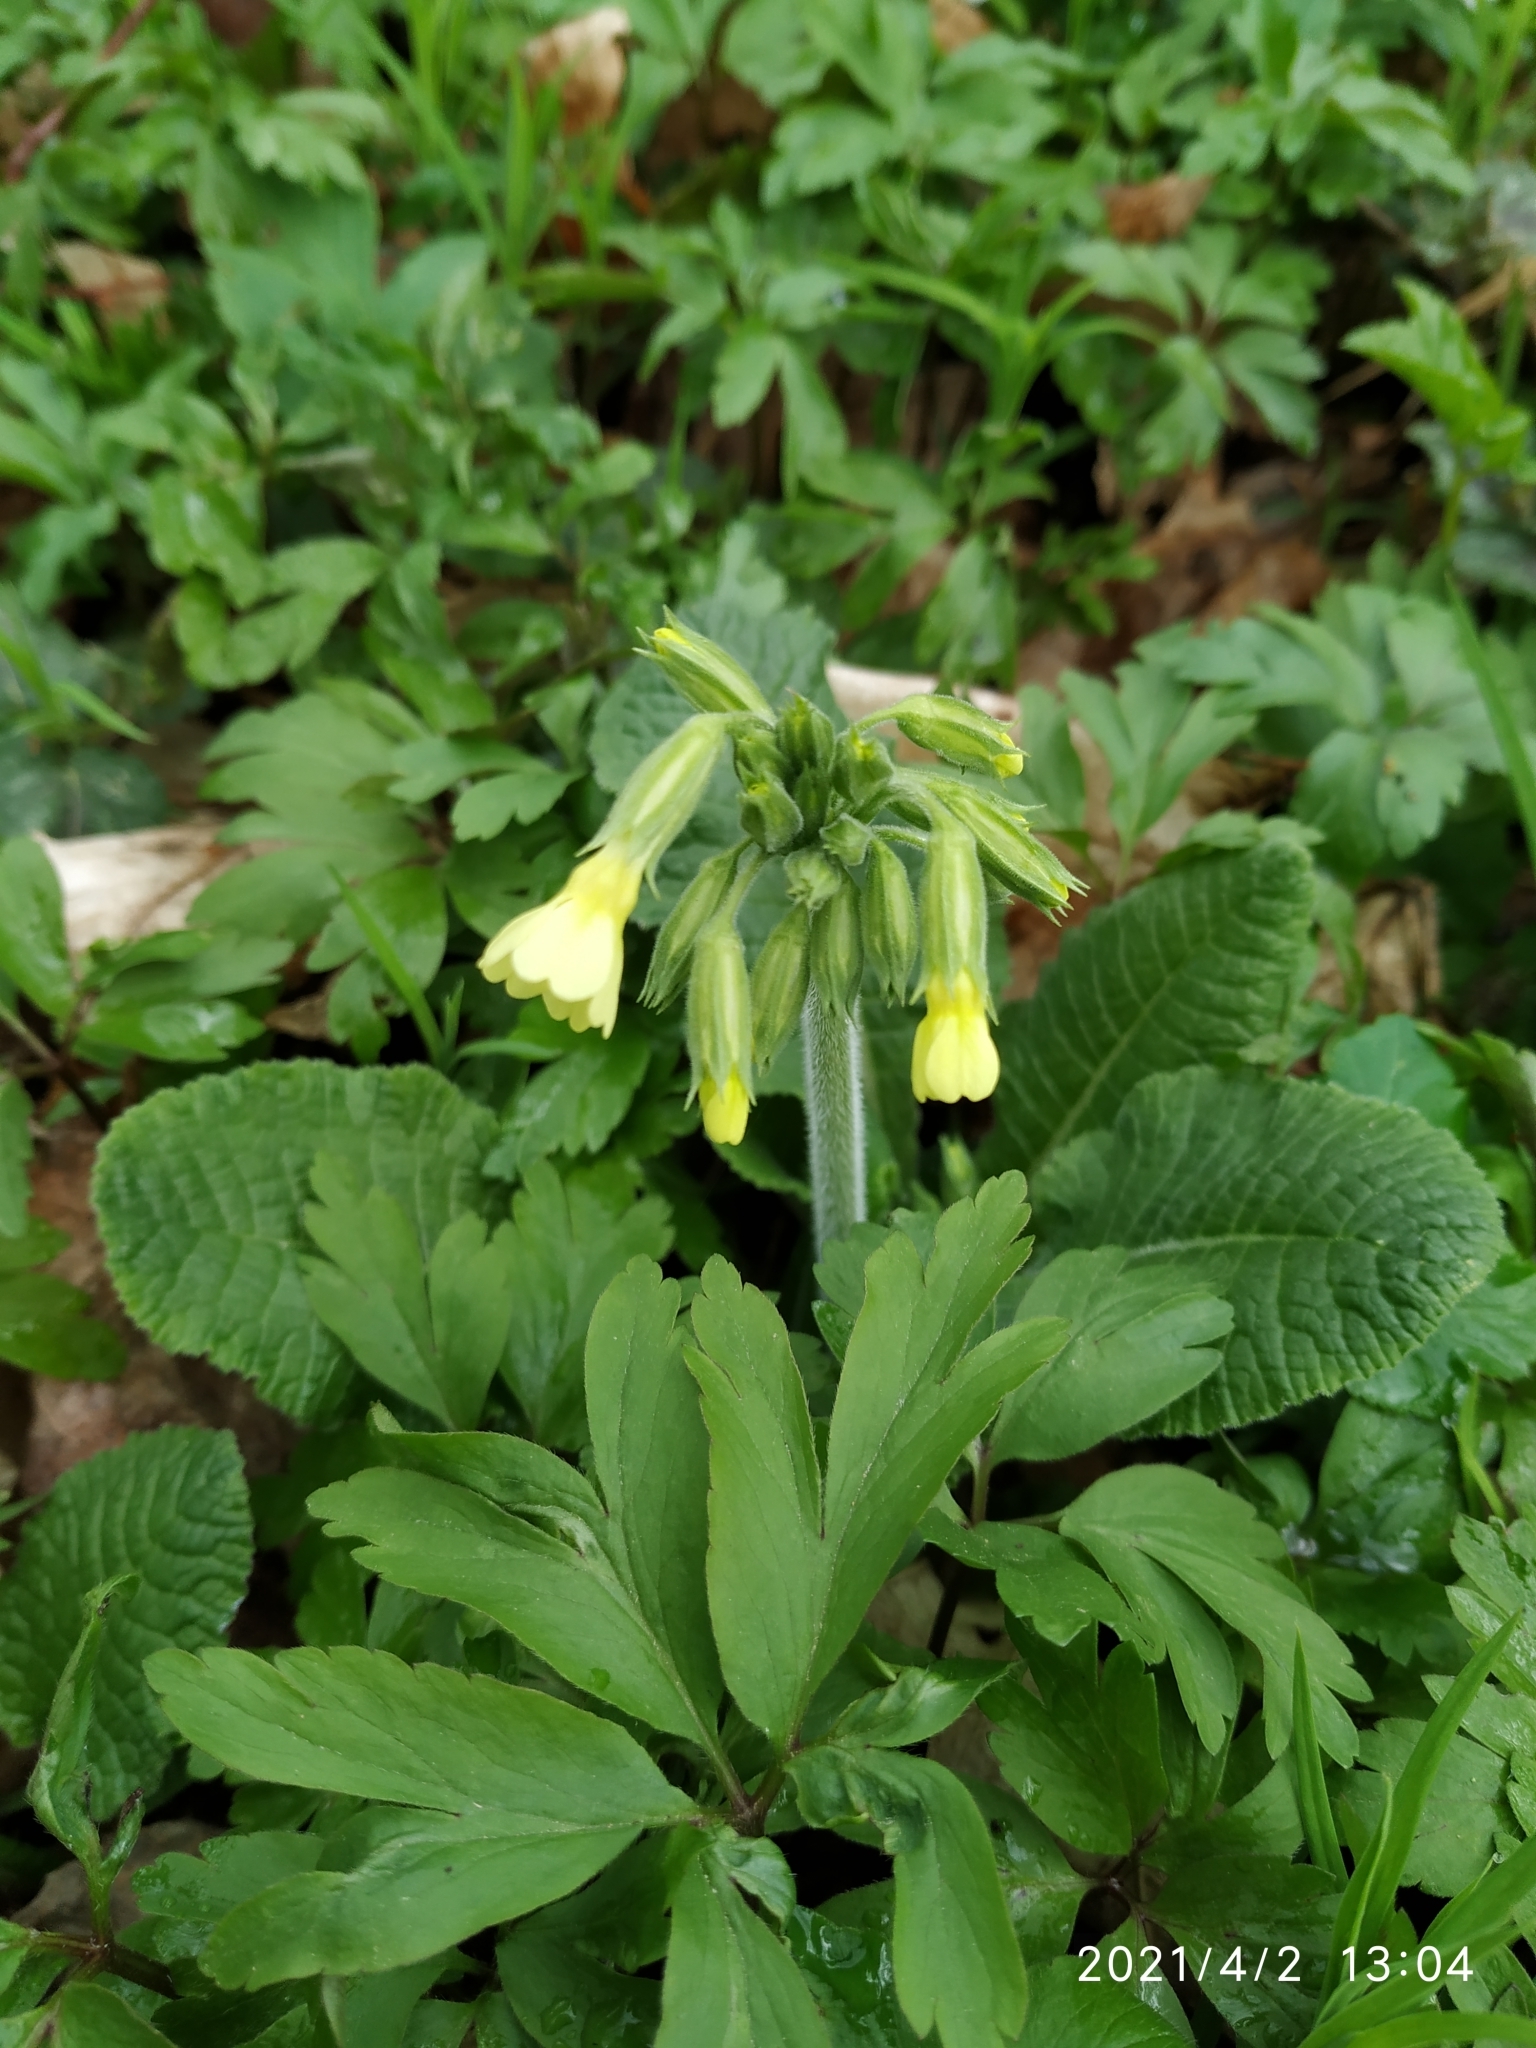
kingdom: Plantae
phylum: Tracheophyta
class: Magnoliopsida
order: Ericales
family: Primulaceae
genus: Primula
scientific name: Primula elatior
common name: Oxlip
